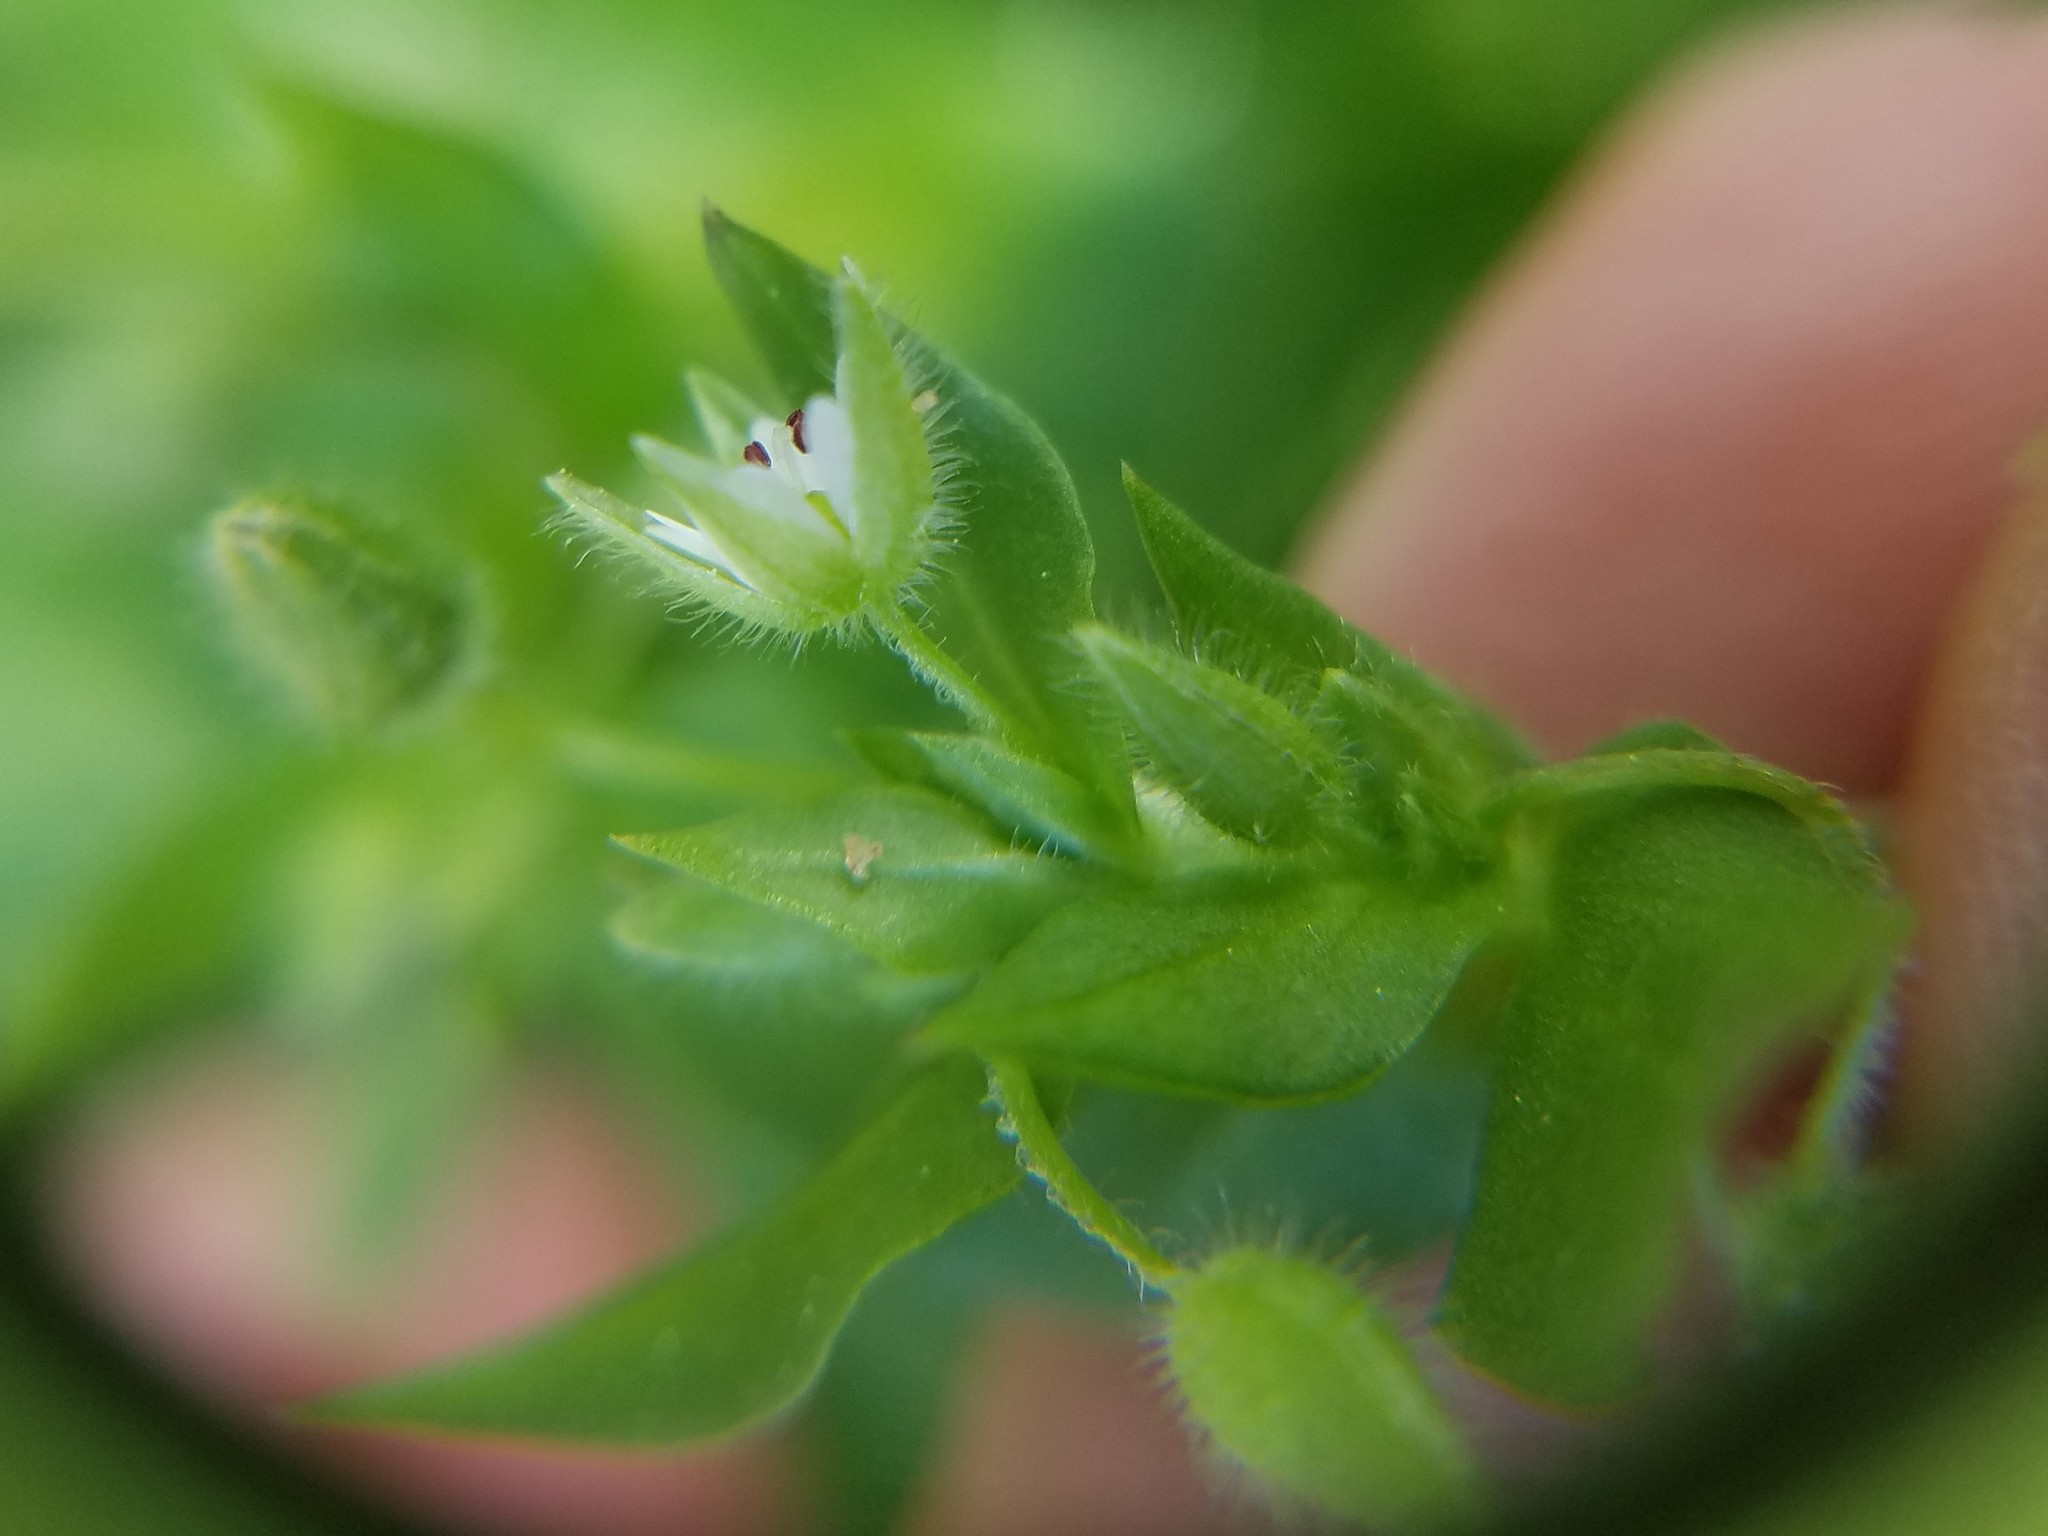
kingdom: Plantae
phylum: Tracheophyta
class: Magnoliopsida
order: Caryophyllales
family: Caryophyllaceae
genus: Stellaria
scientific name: Stellaria media
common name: Common chickweed
